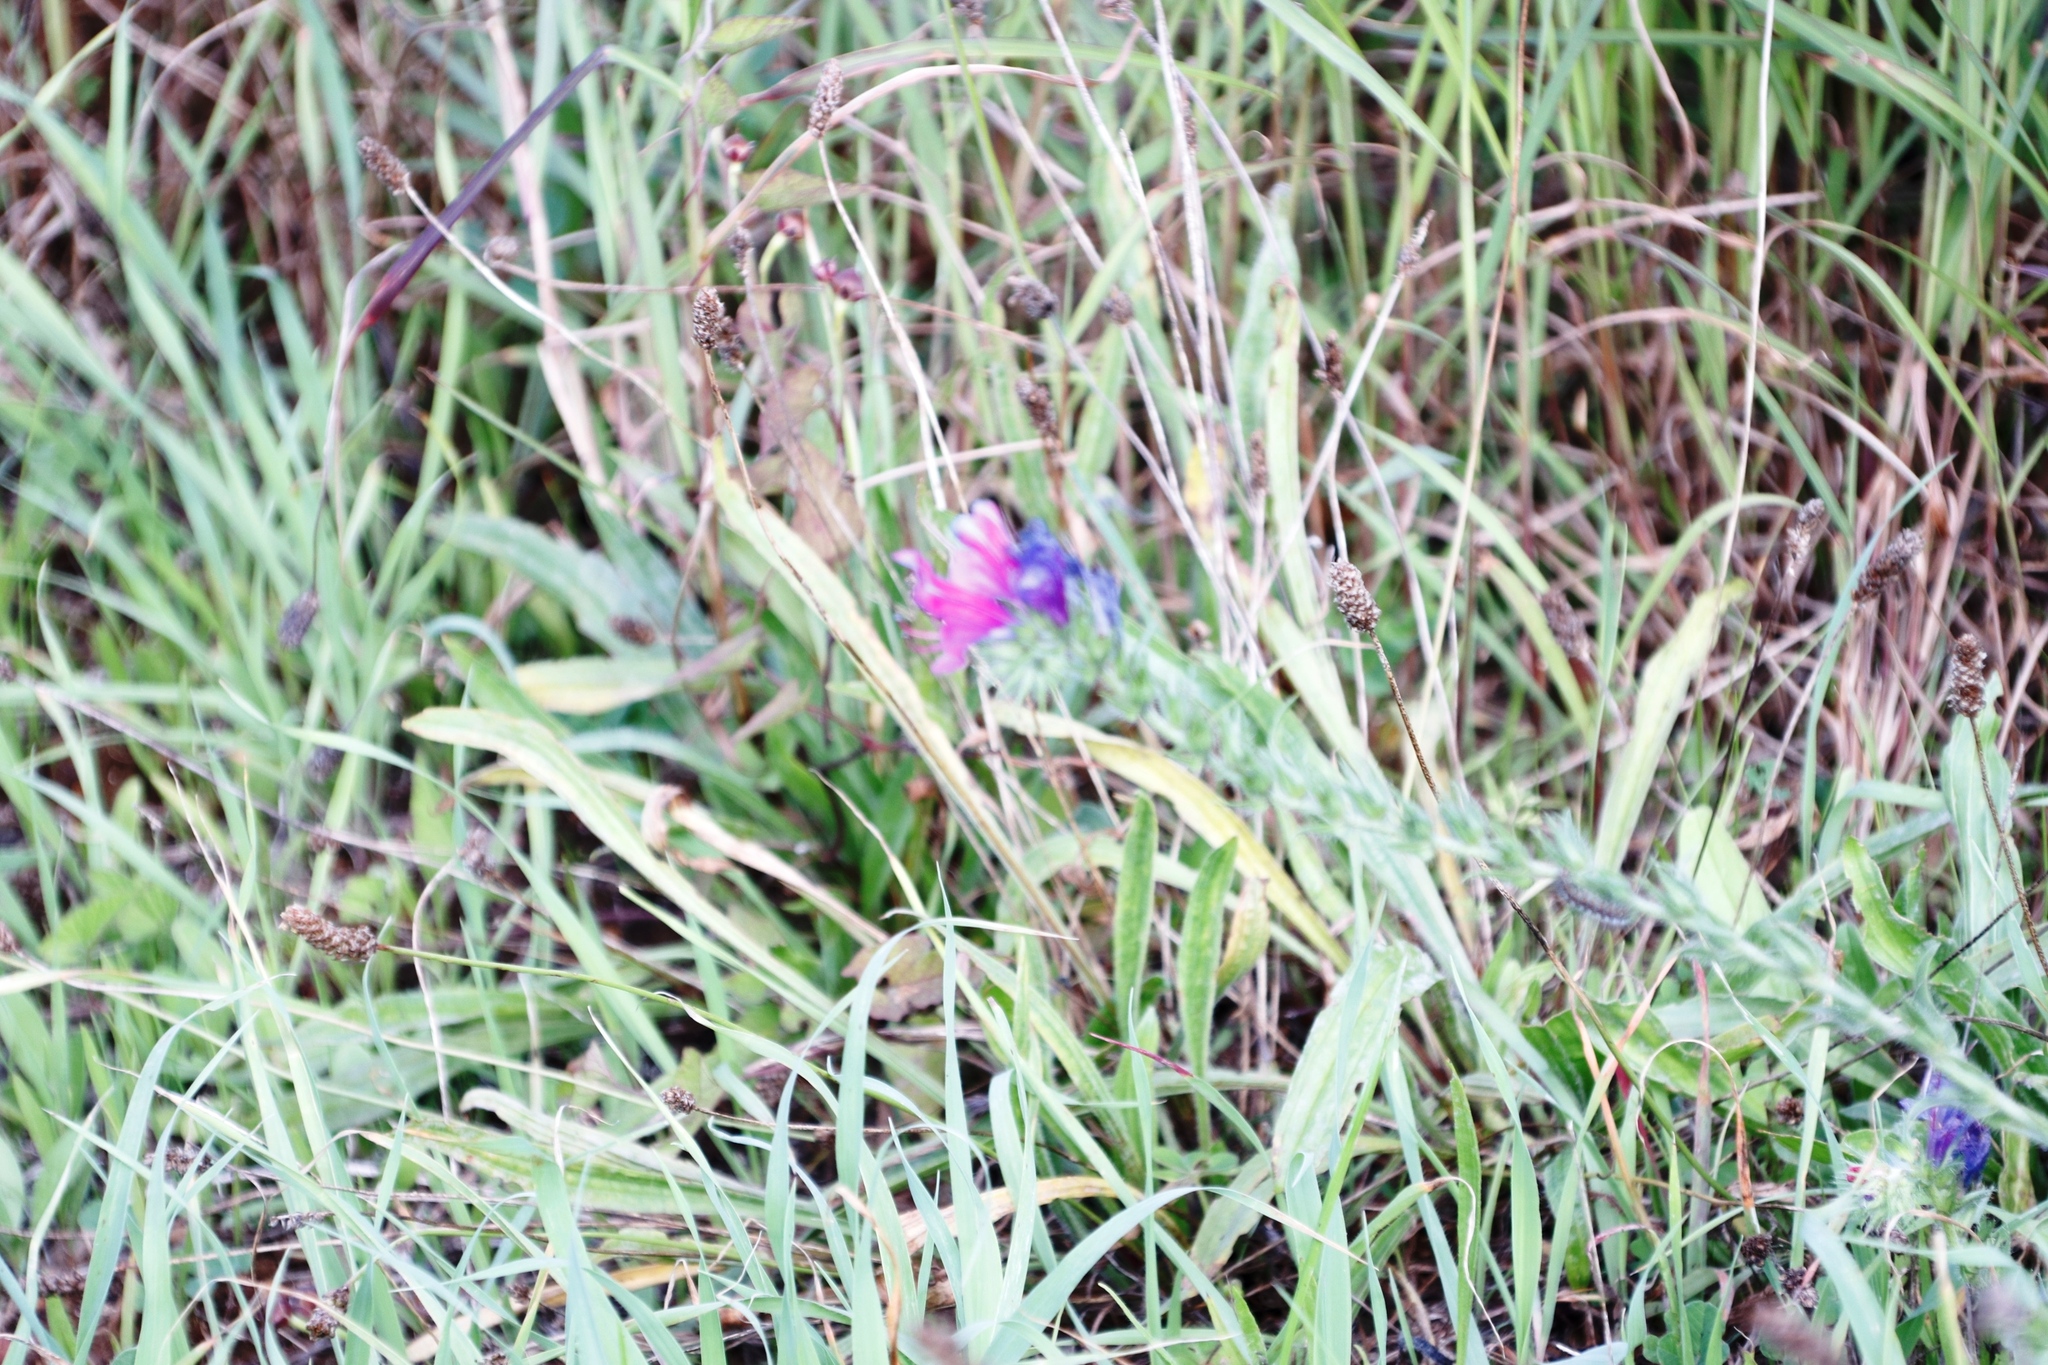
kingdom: Plantae
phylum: Tracheophyta
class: Magnoliopsida
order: Boraginales
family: Boraginaceae
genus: Echium
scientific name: Echium plantagineum
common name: Purple viper's-bugloss
